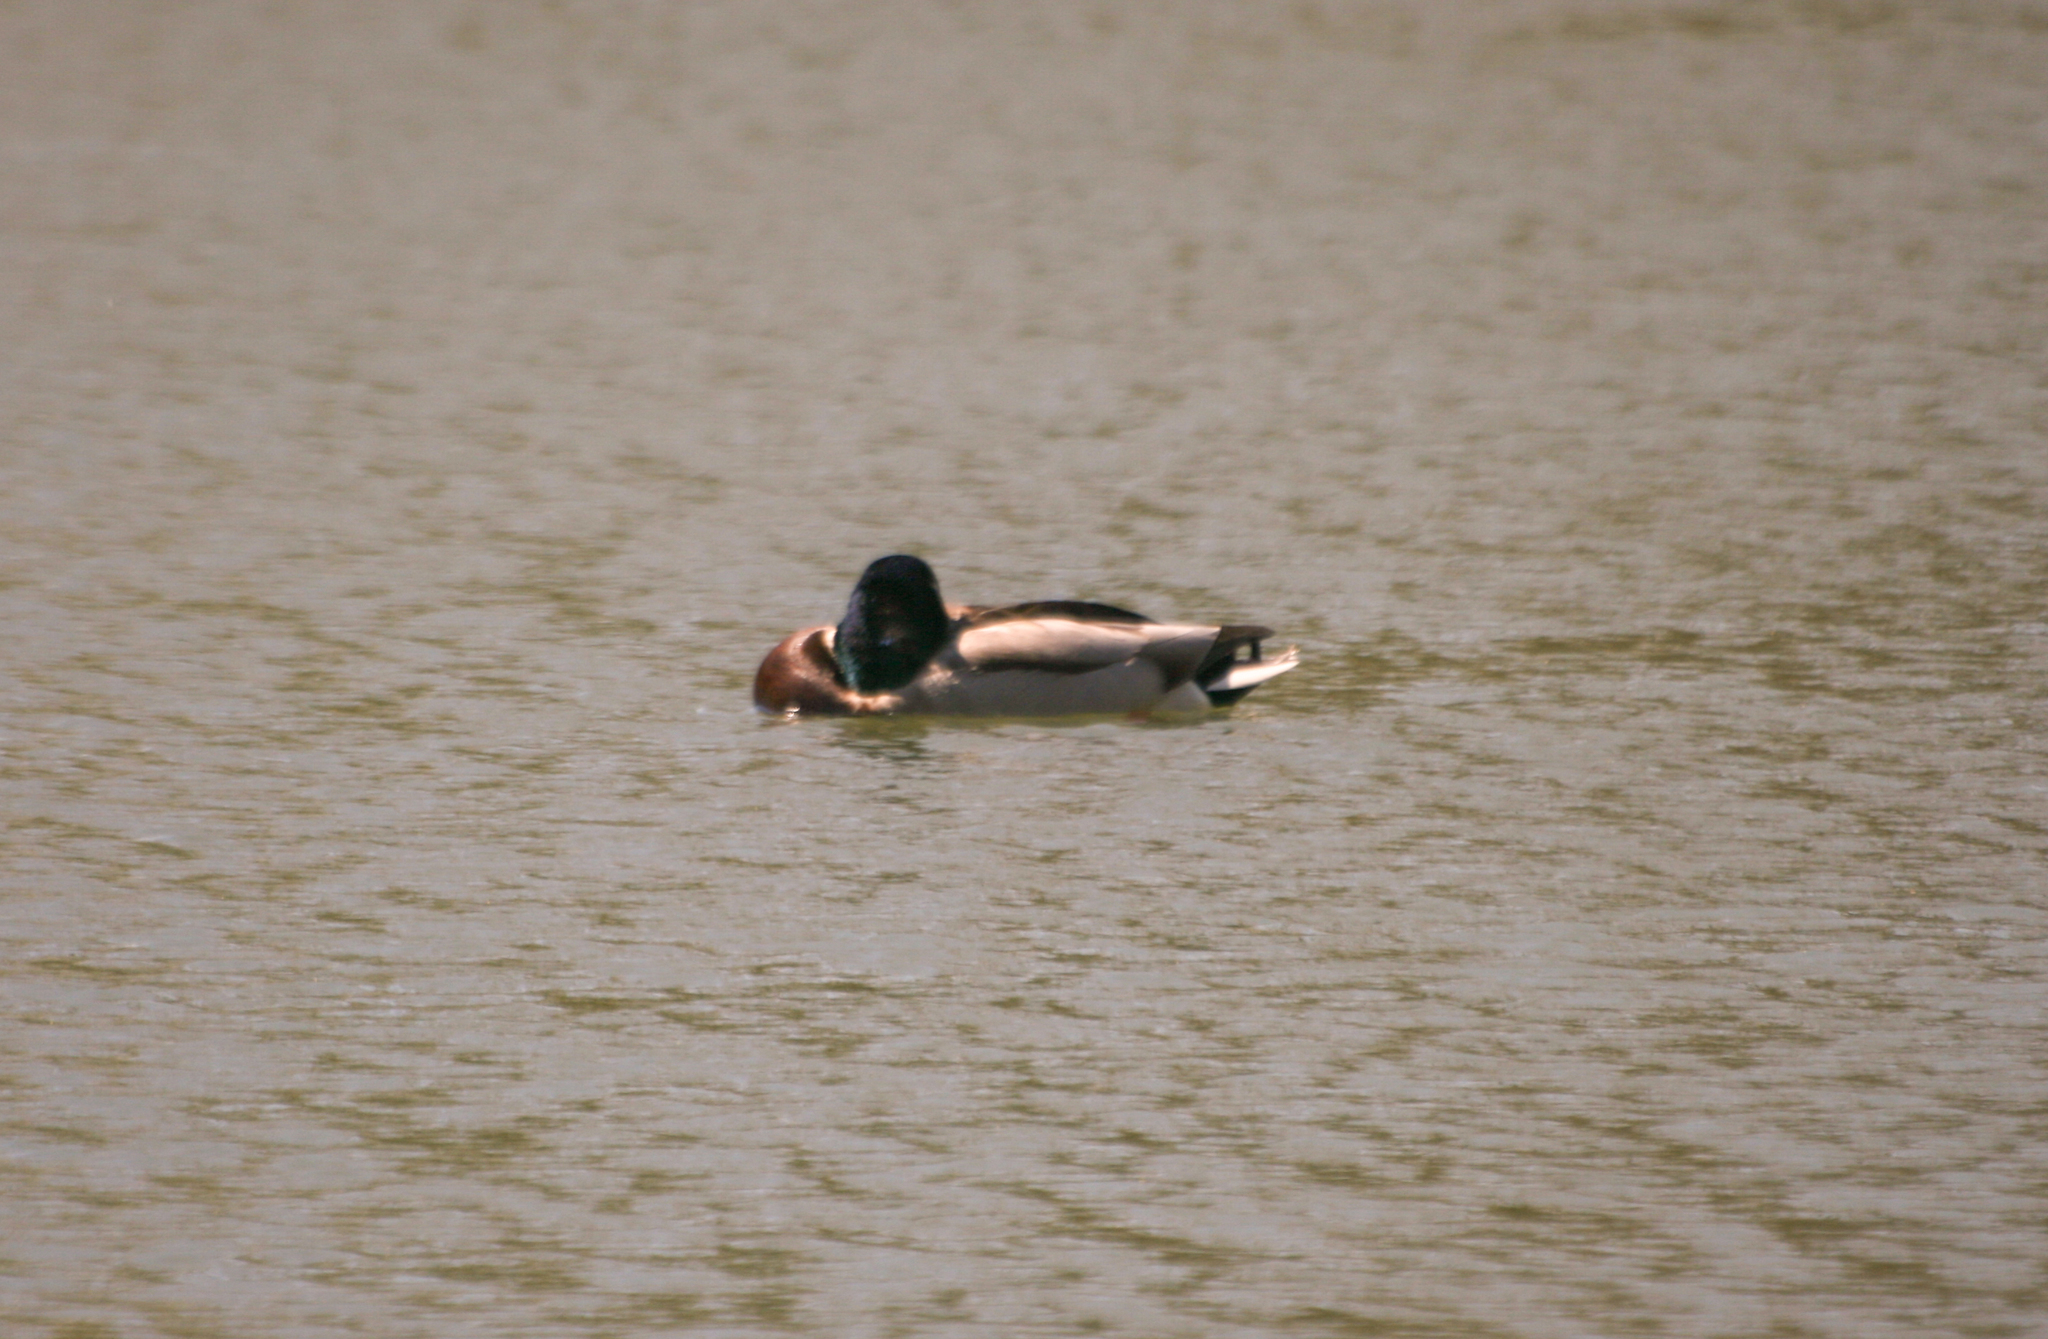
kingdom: Animalia
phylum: Chordata
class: Aves
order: Anseriformes
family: Anatidae
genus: Anas
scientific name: Anas platyrhynchos
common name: Mallard
